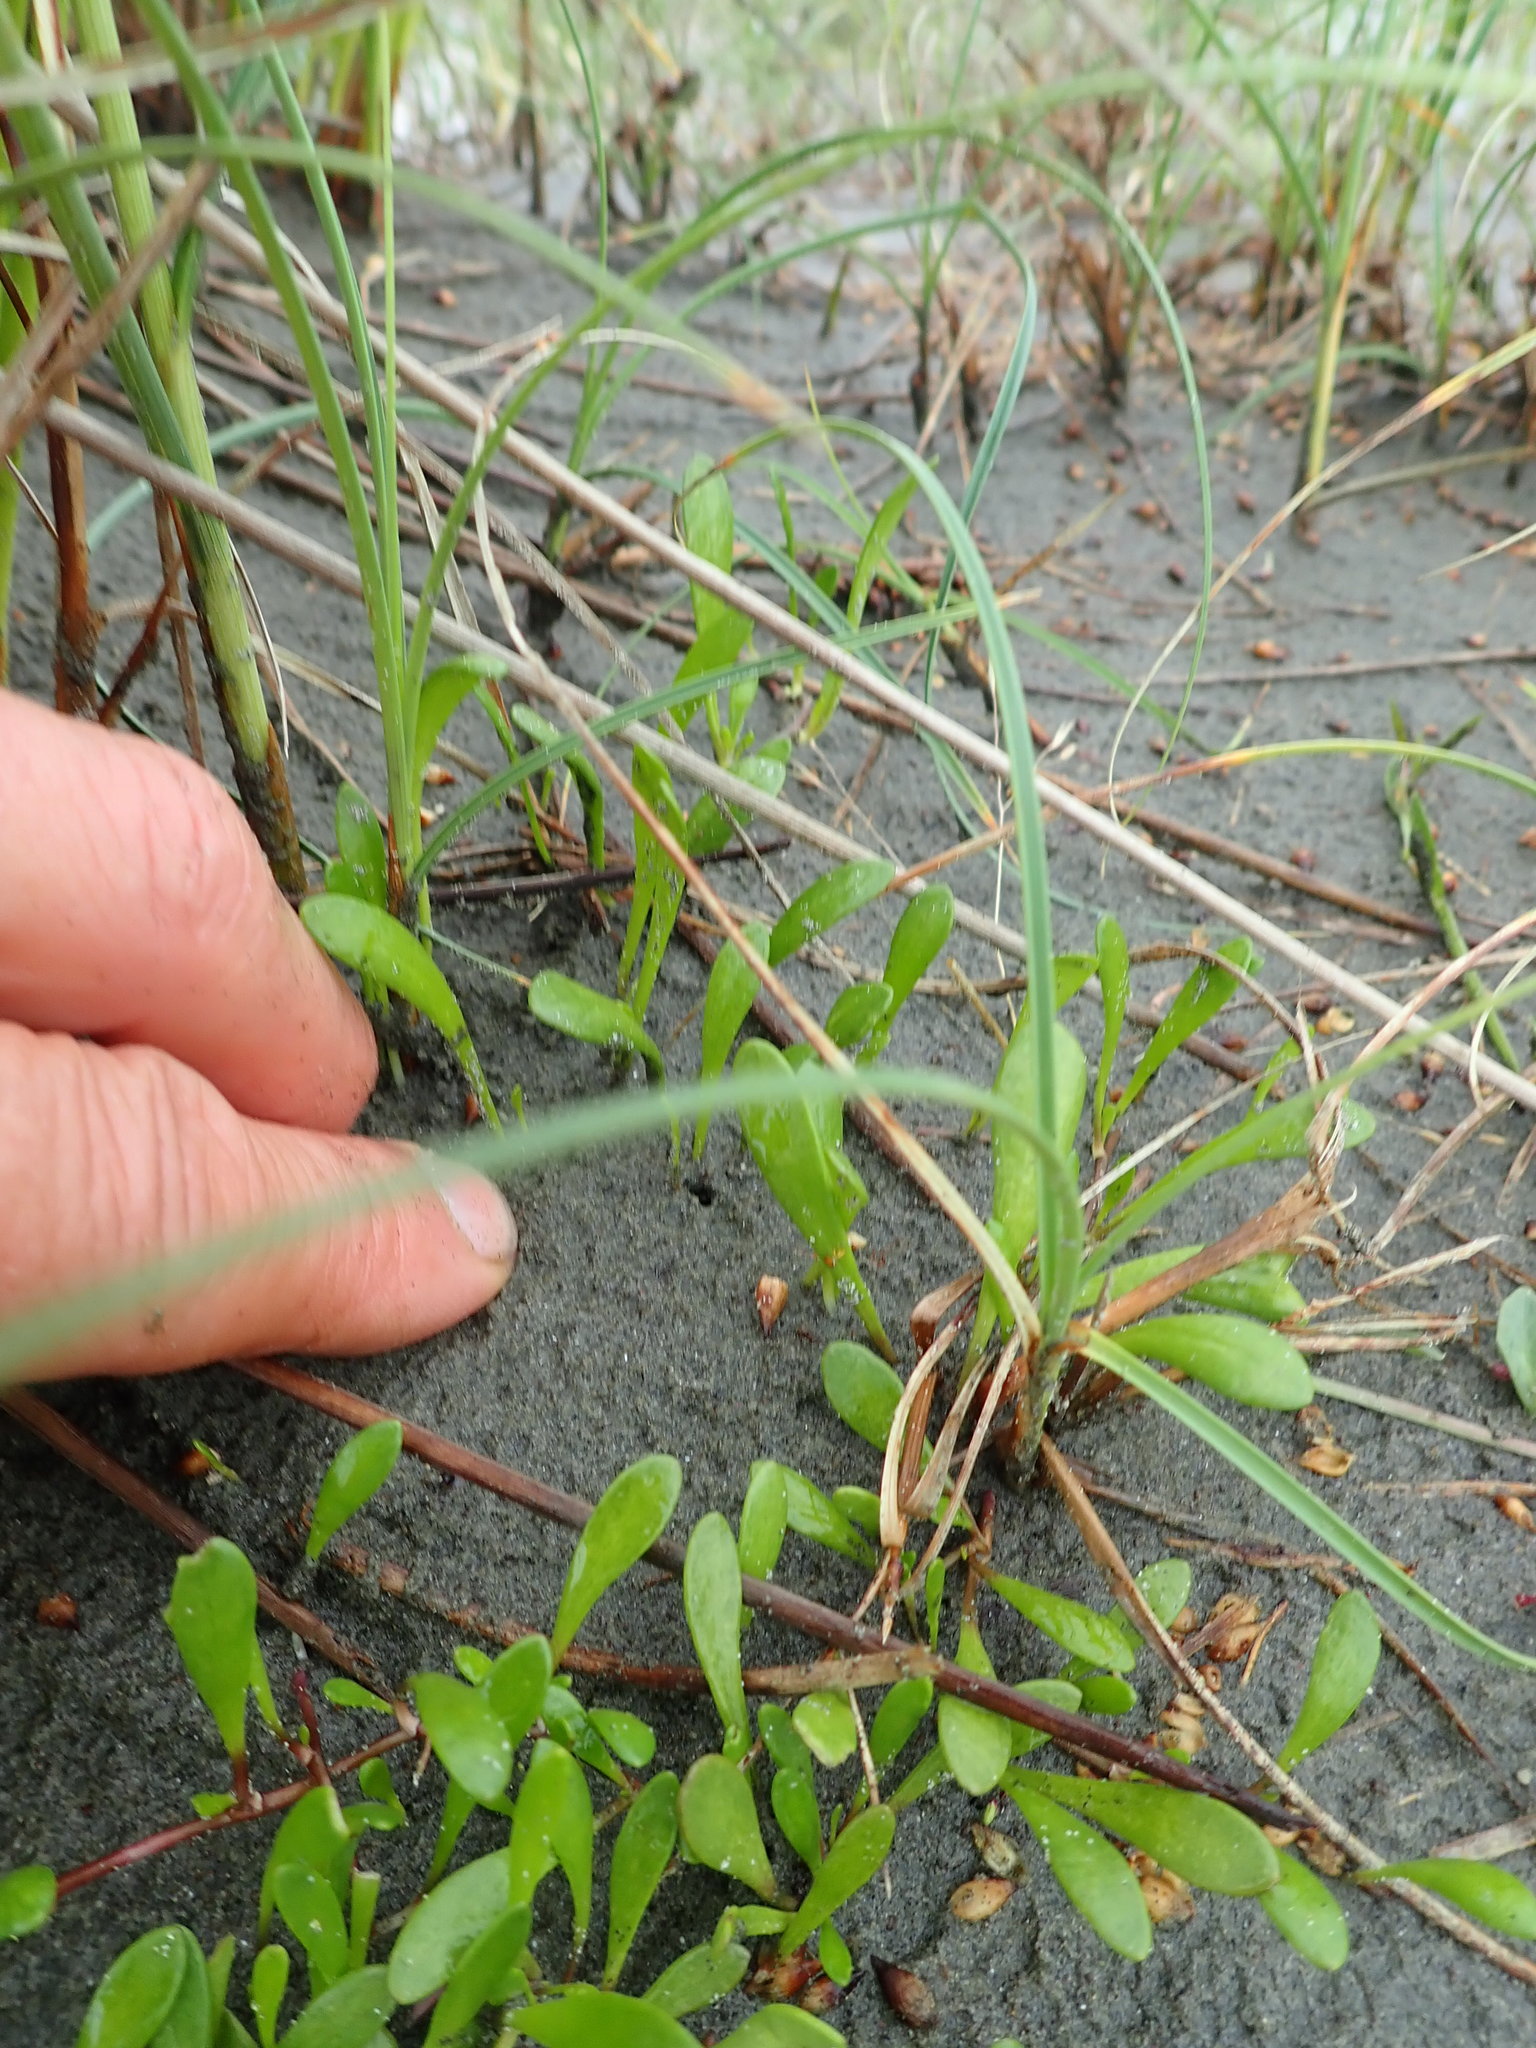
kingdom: Plantae
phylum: Tracheophyta
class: Magnoliopsida
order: Asterales
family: Goodeniaceae
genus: Goodenia
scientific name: Goodenia radicans
